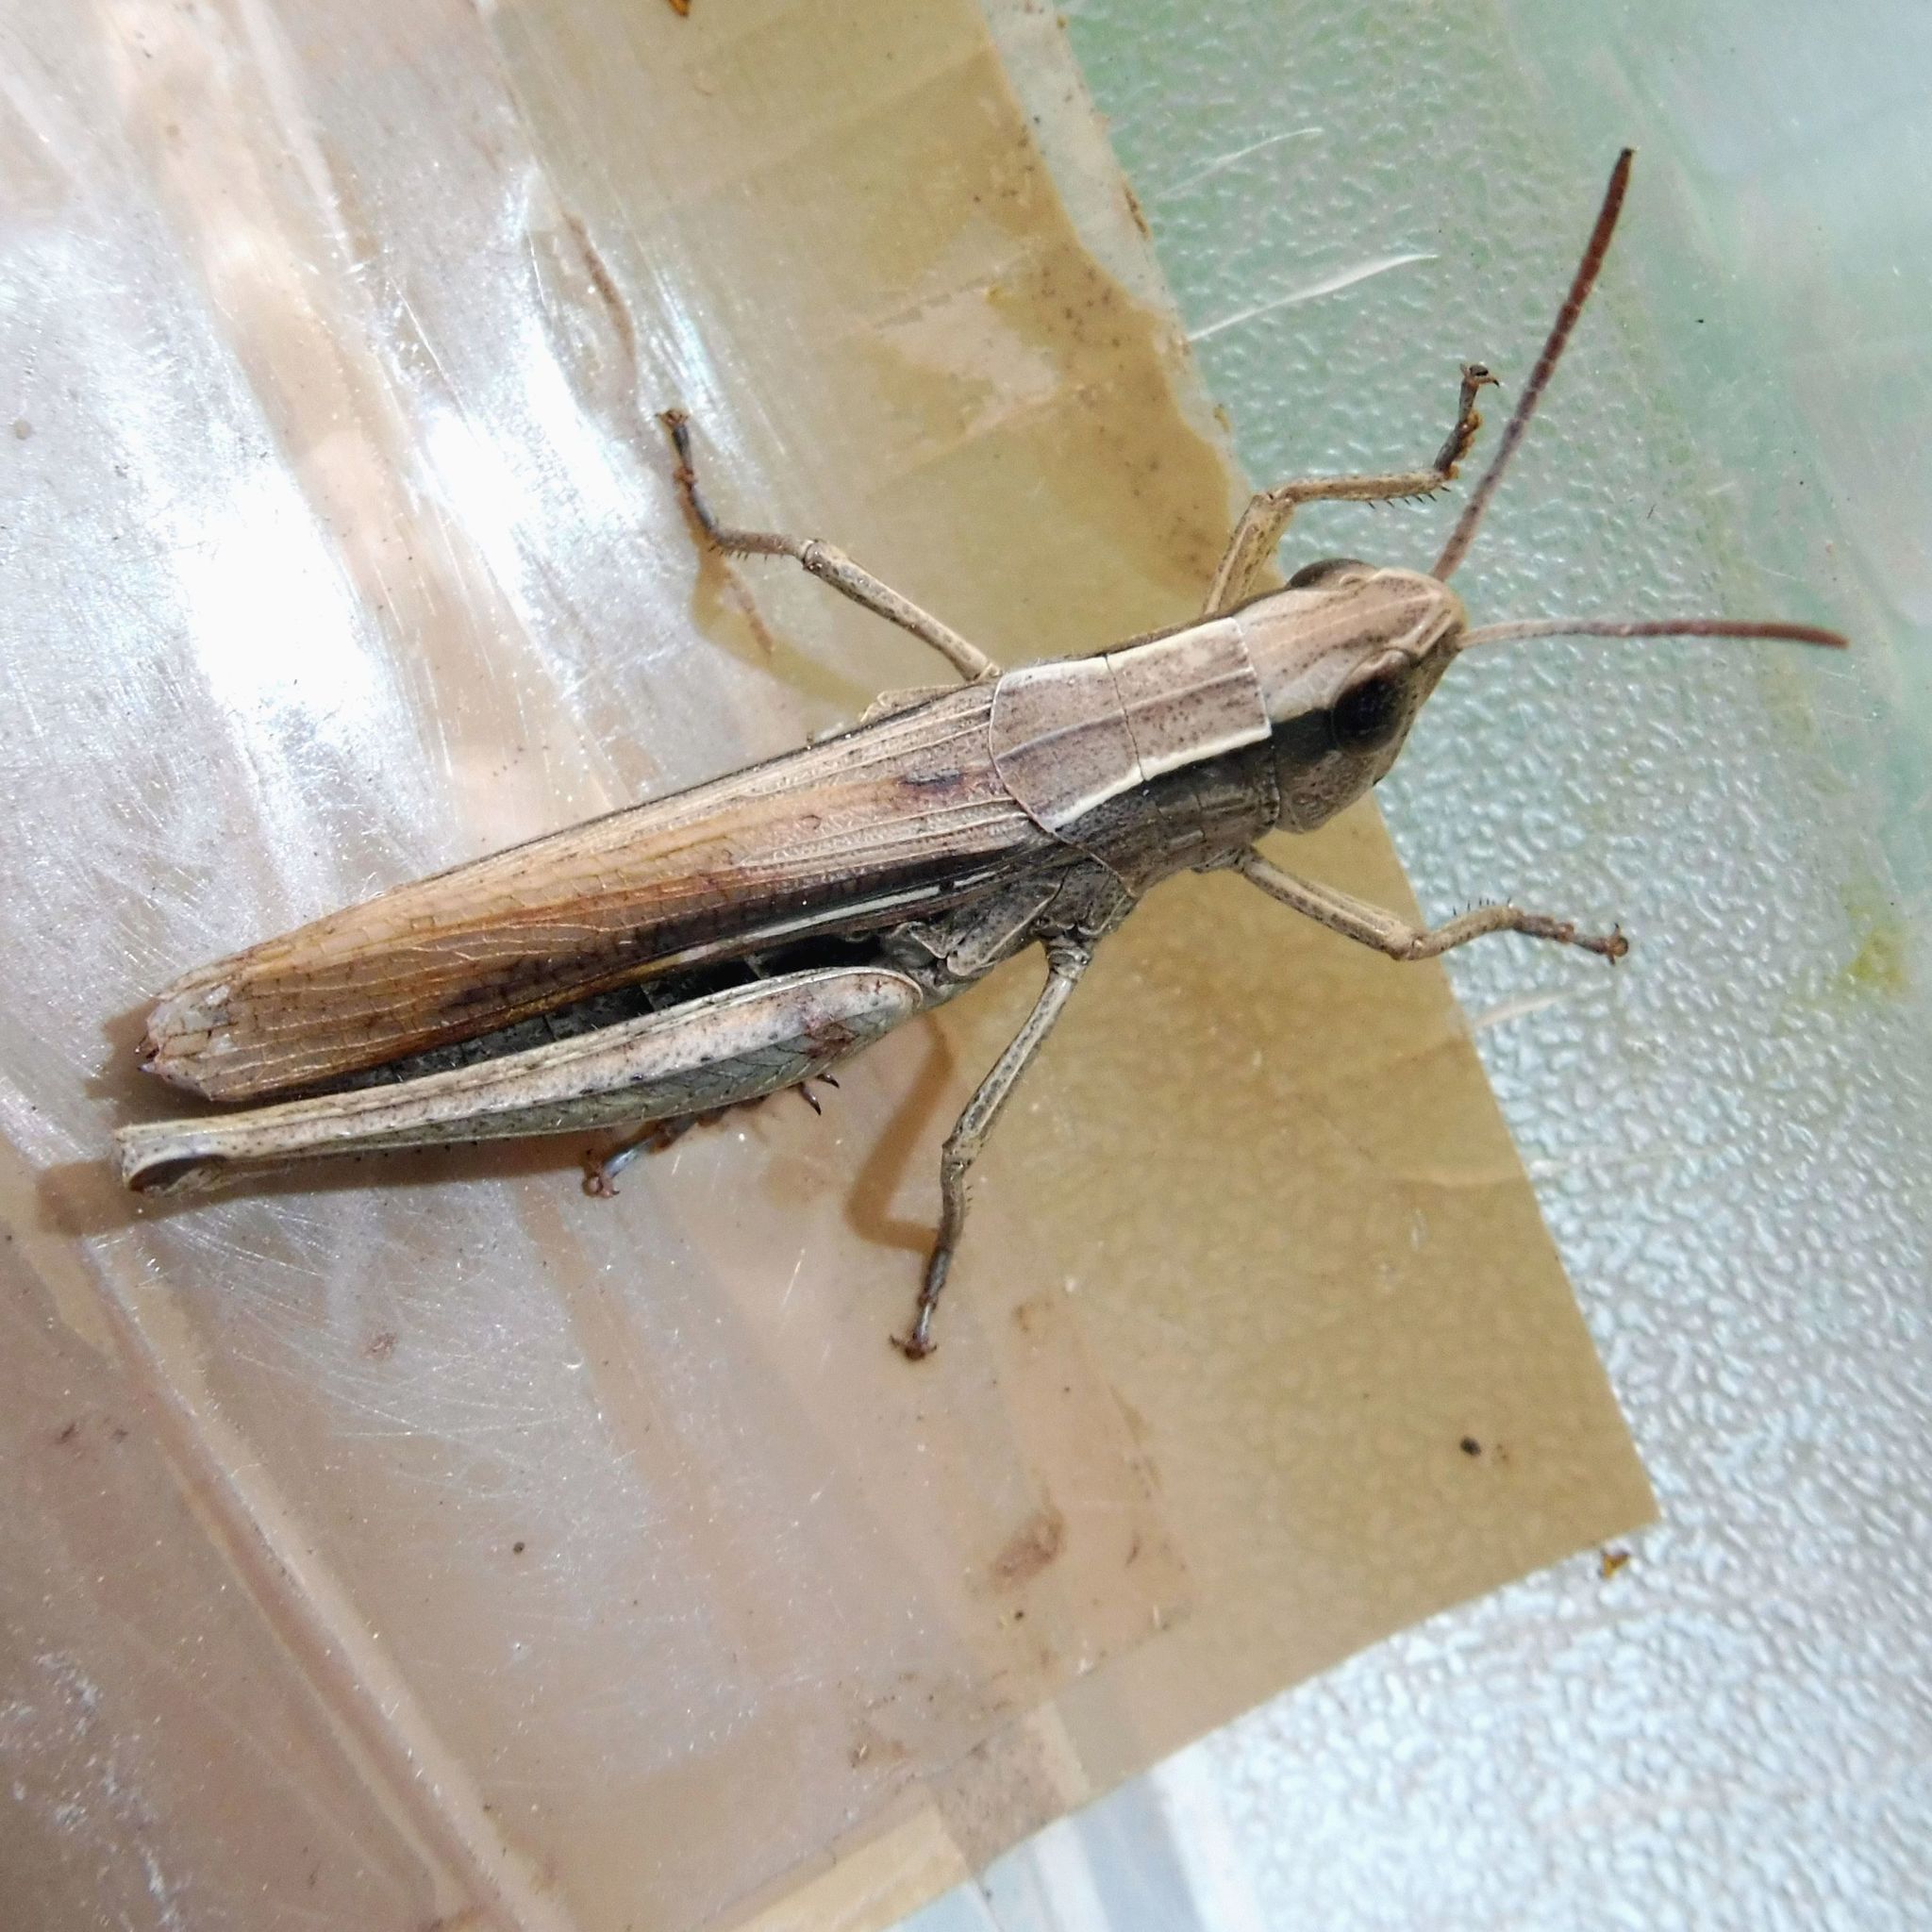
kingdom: Animalia
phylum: Arthropoda
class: Insecta
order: Orthoptera
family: Acrididae
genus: Chorthippus
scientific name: Chorthippus albomarginatus
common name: Lesser marsh grasshopper
